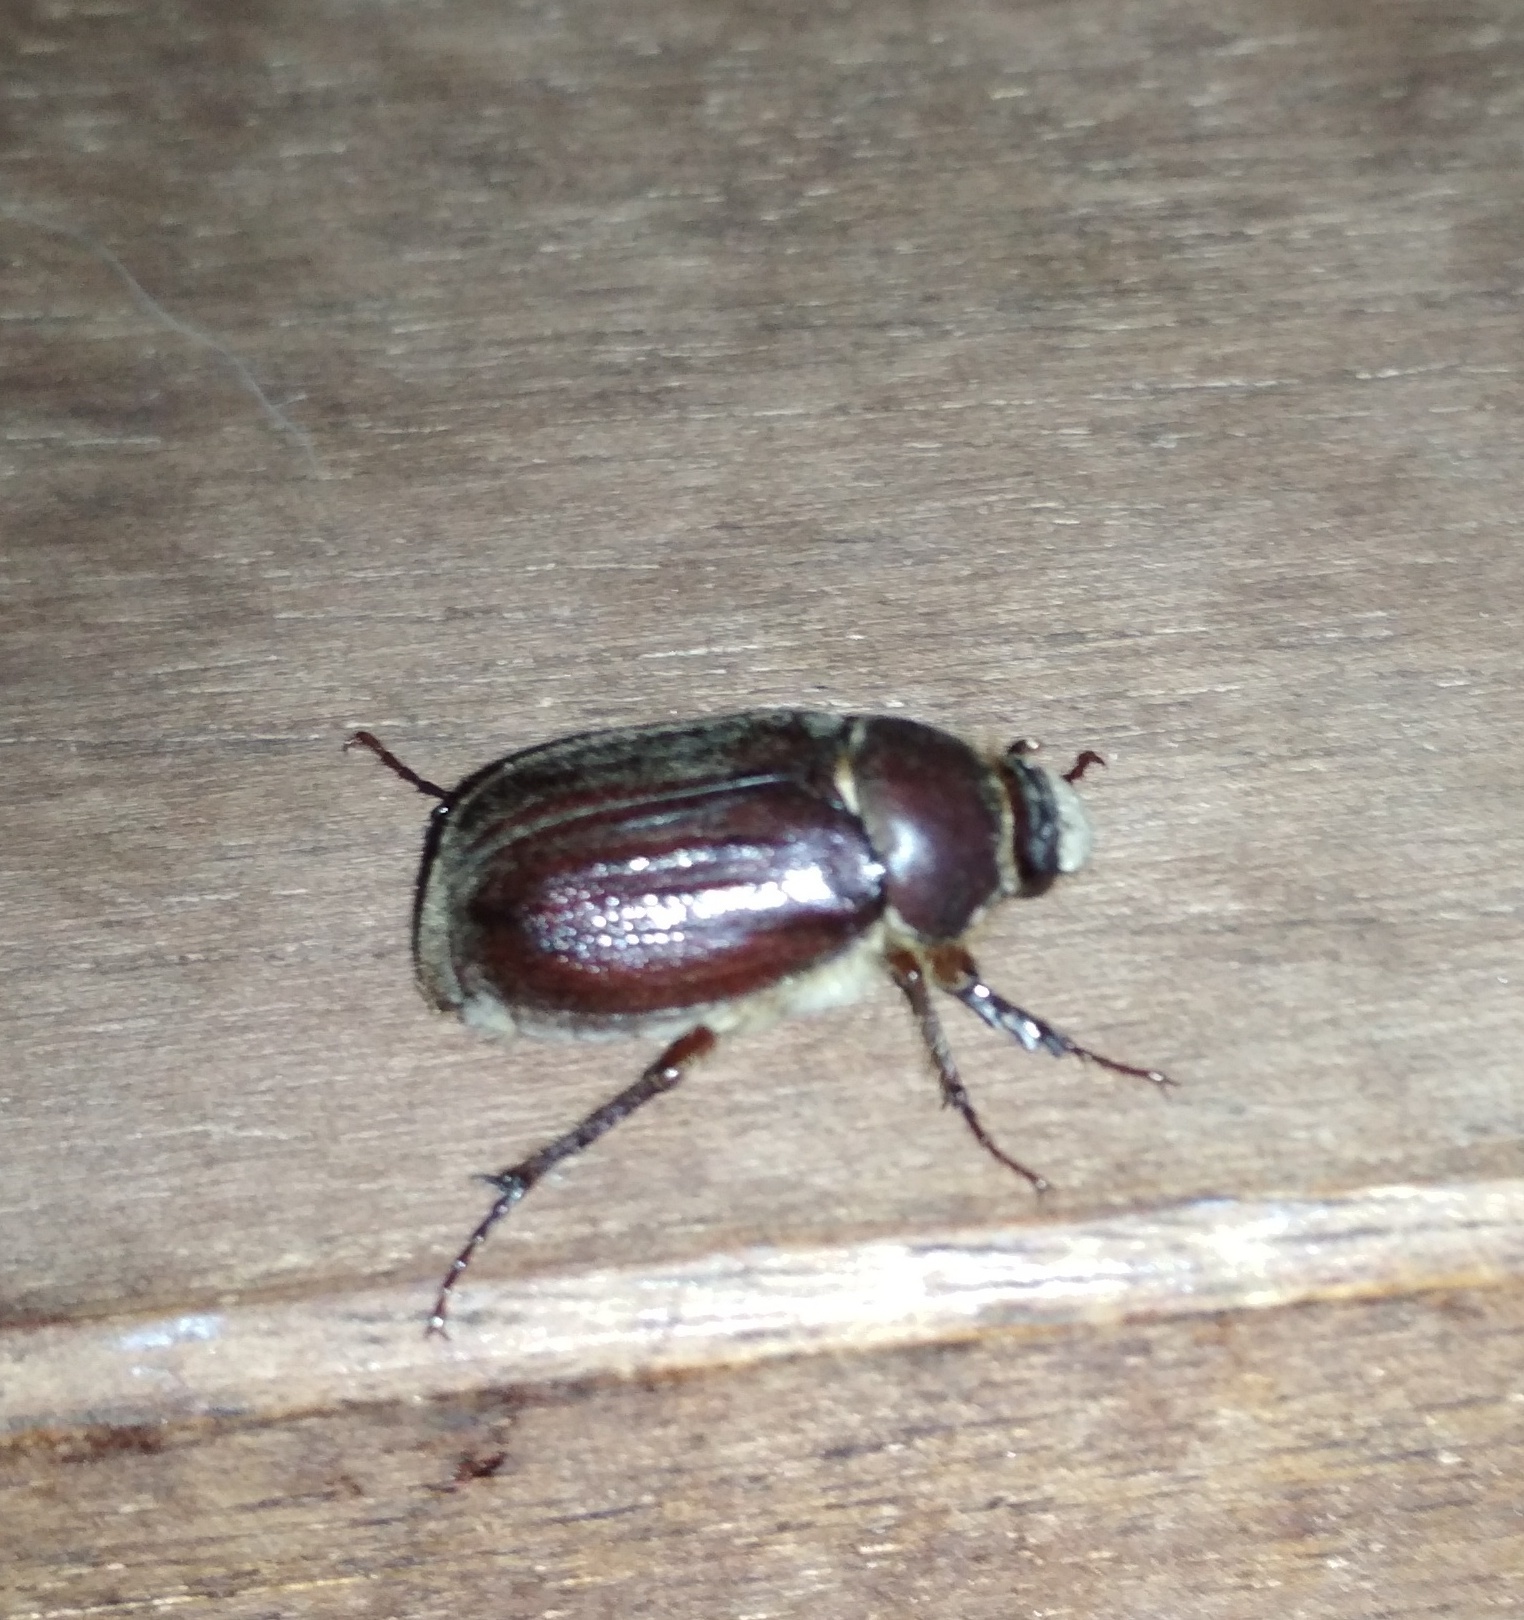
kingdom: Animalia
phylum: Arthropoda
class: Insecta
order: Coleoptera
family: Scarabaeidae
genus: Aplidia
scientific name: Aplidia transversa
